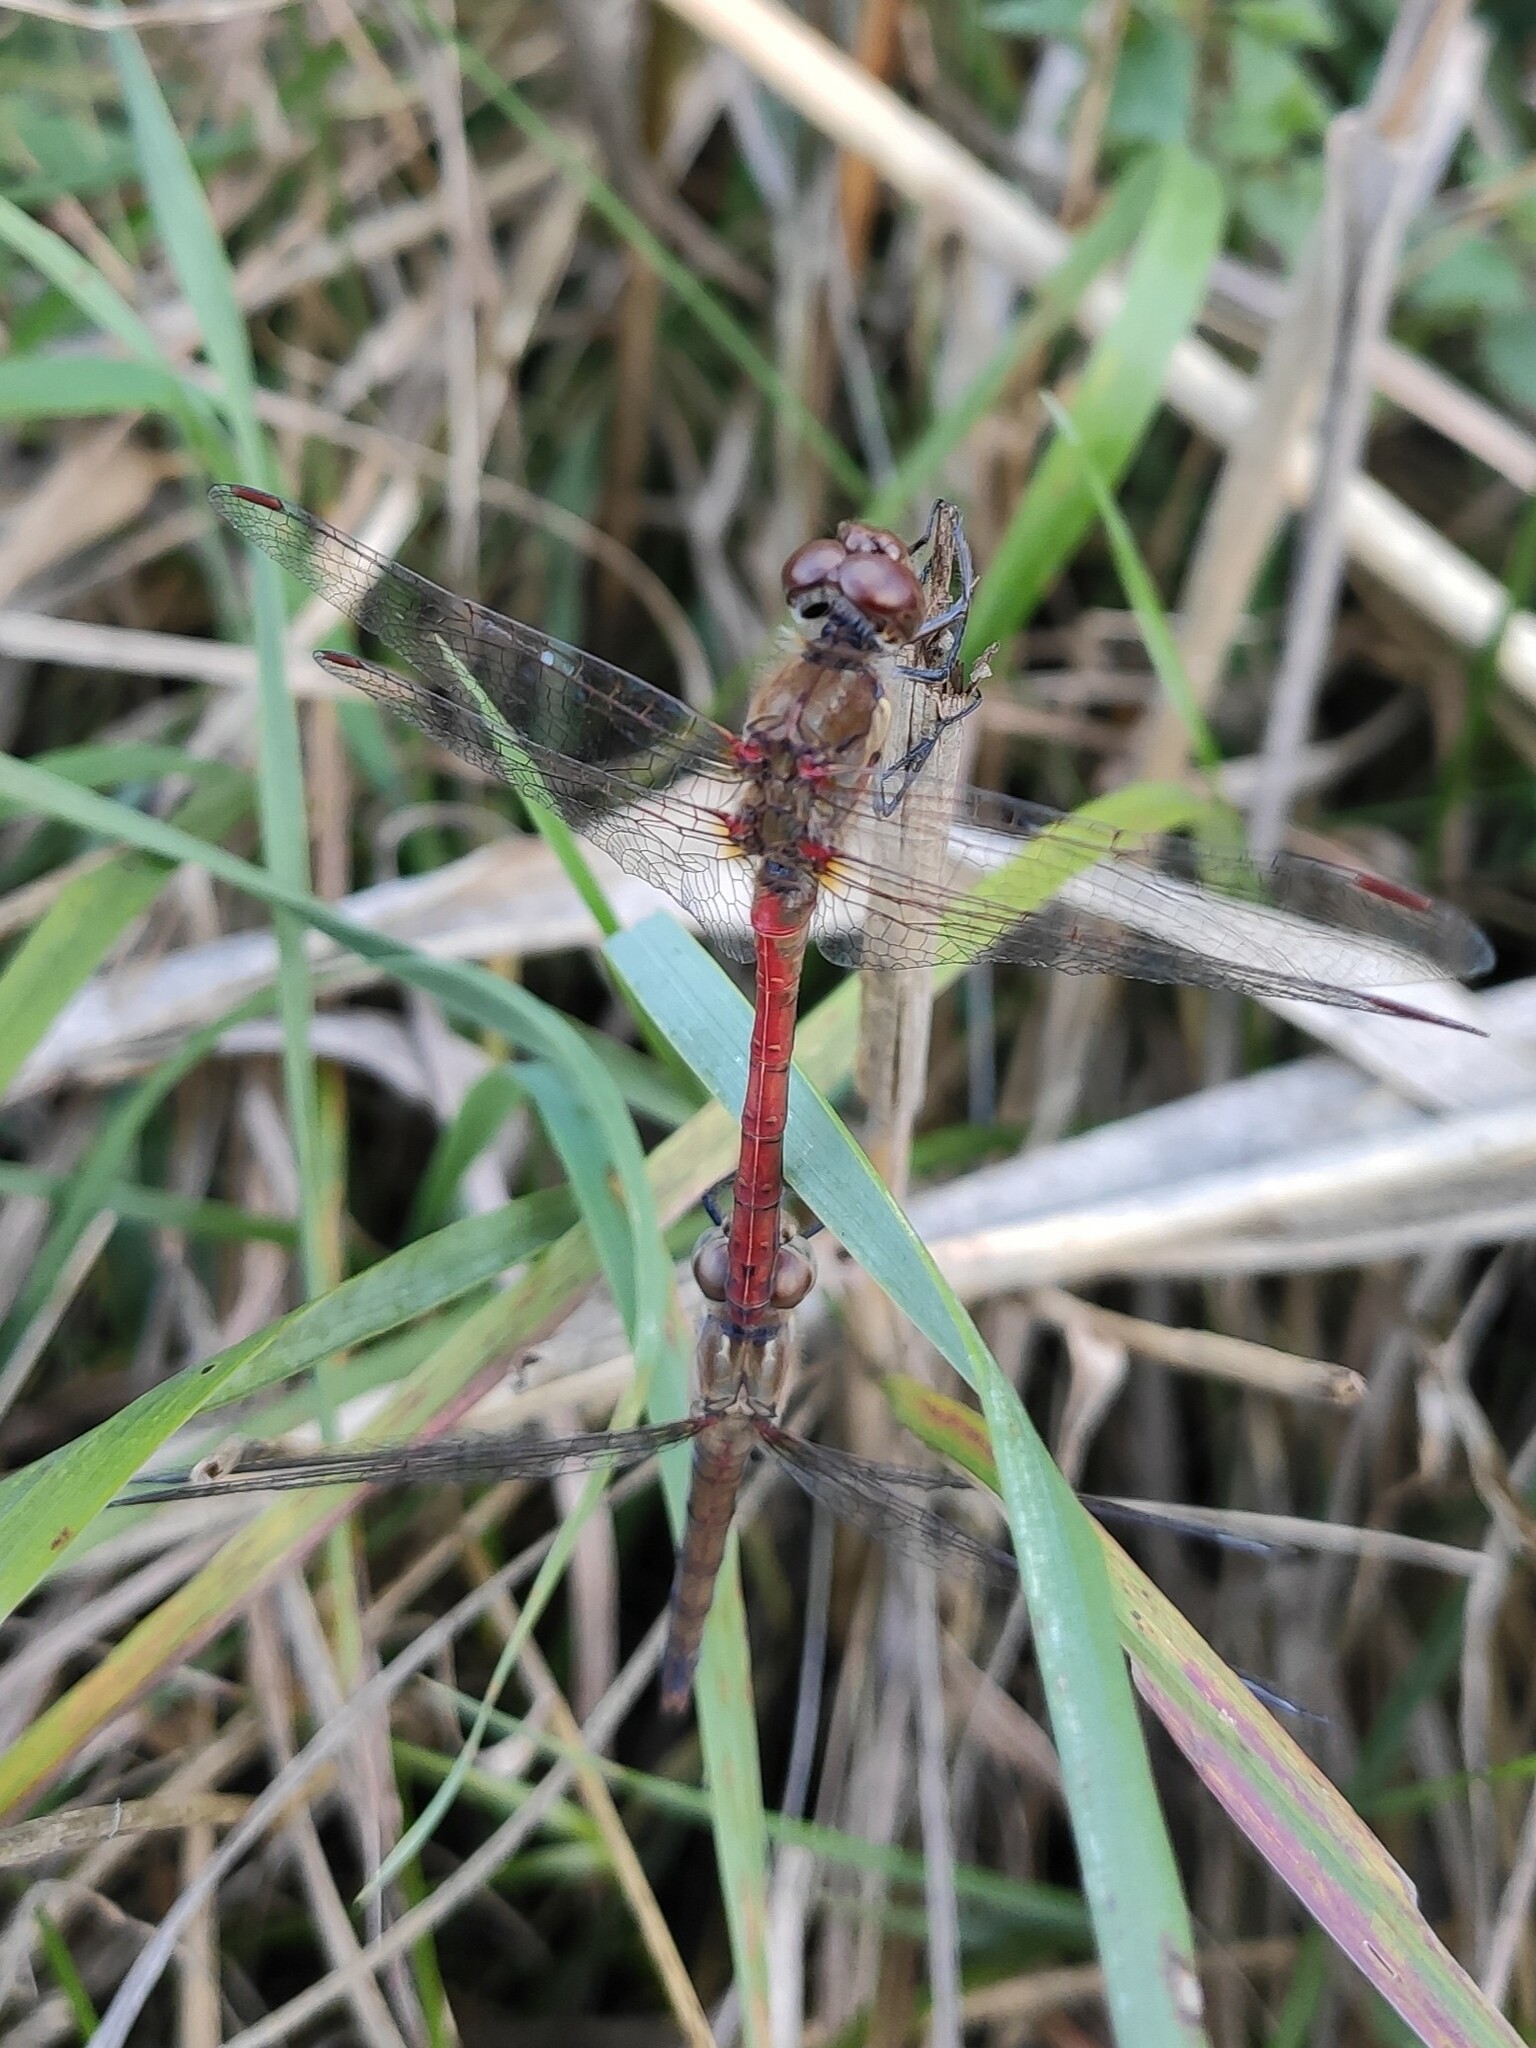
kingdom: Animalia
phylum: Arthropoda
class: Insecta
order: Odonata
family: Libellulidae
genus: Sympetrum
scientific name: Sympetrum striolatum
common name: Common darter
